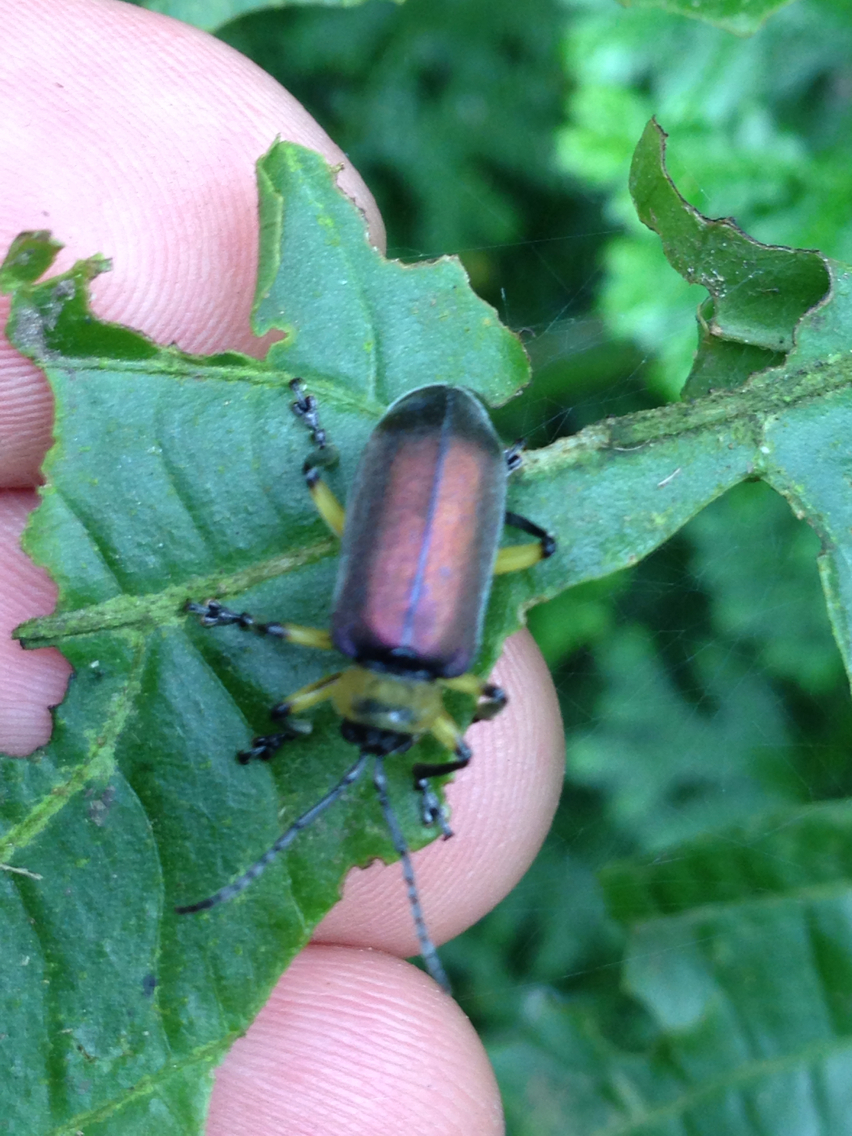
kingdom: Animalia
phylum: Arthropoda
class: Insecta
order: Coleoptera
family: Chrysomelidae
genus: Coelomera
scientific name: Coelomera
